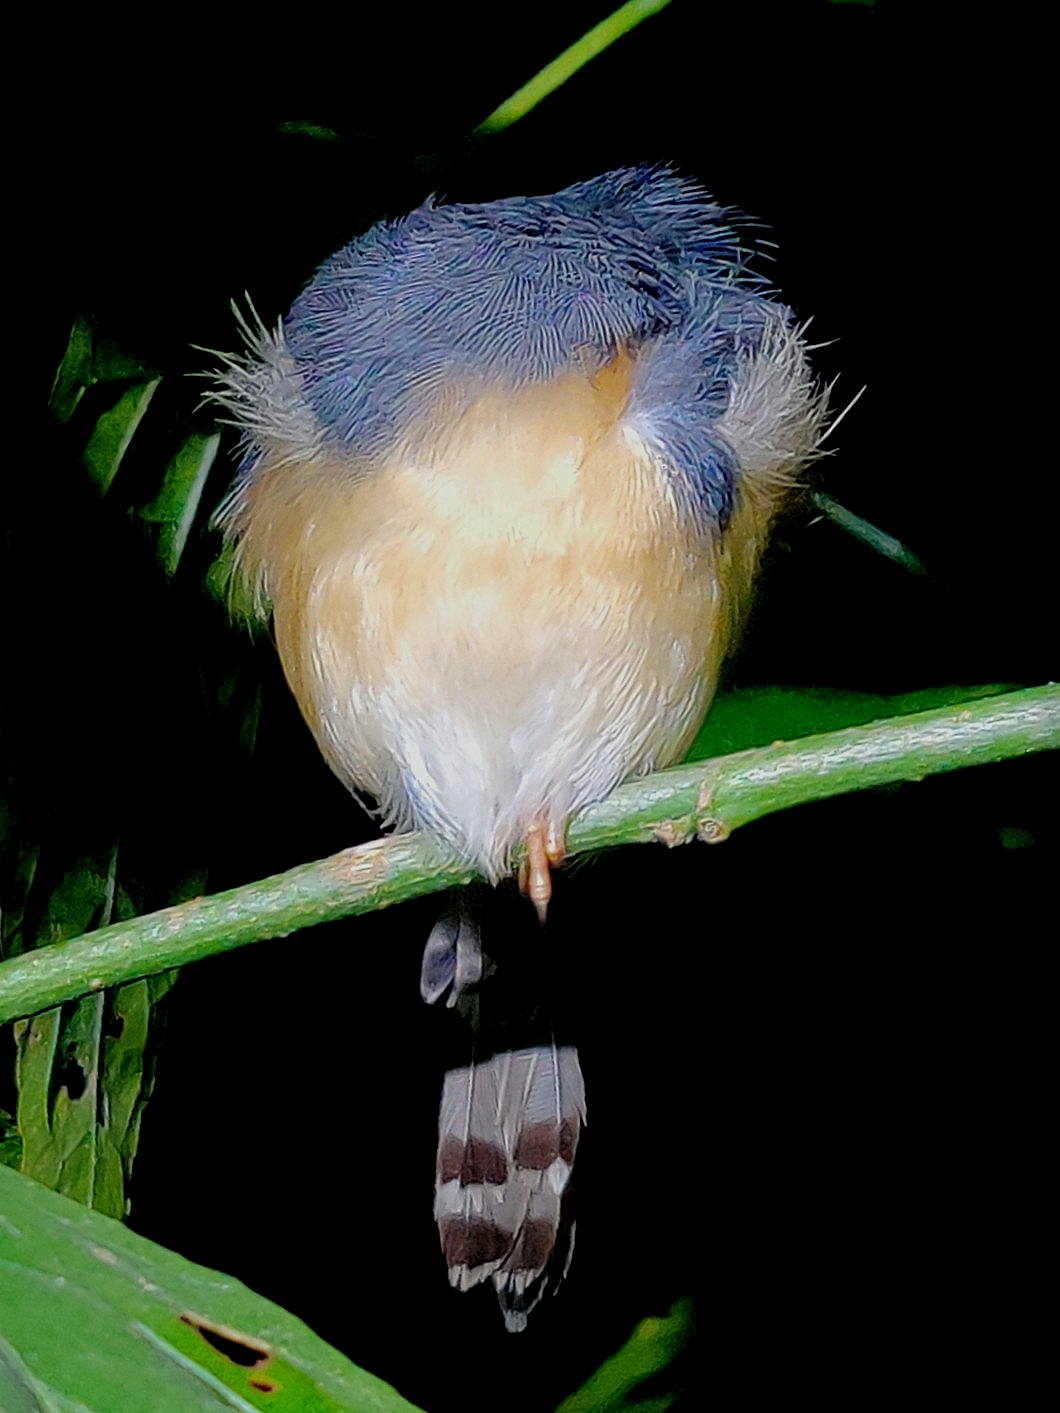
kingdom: Animalia
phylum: Chordata
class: Aves
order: Passeriformes
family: Cisticolidae
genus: Prinia
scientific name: Prinia socialis
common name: Ashy prinia
